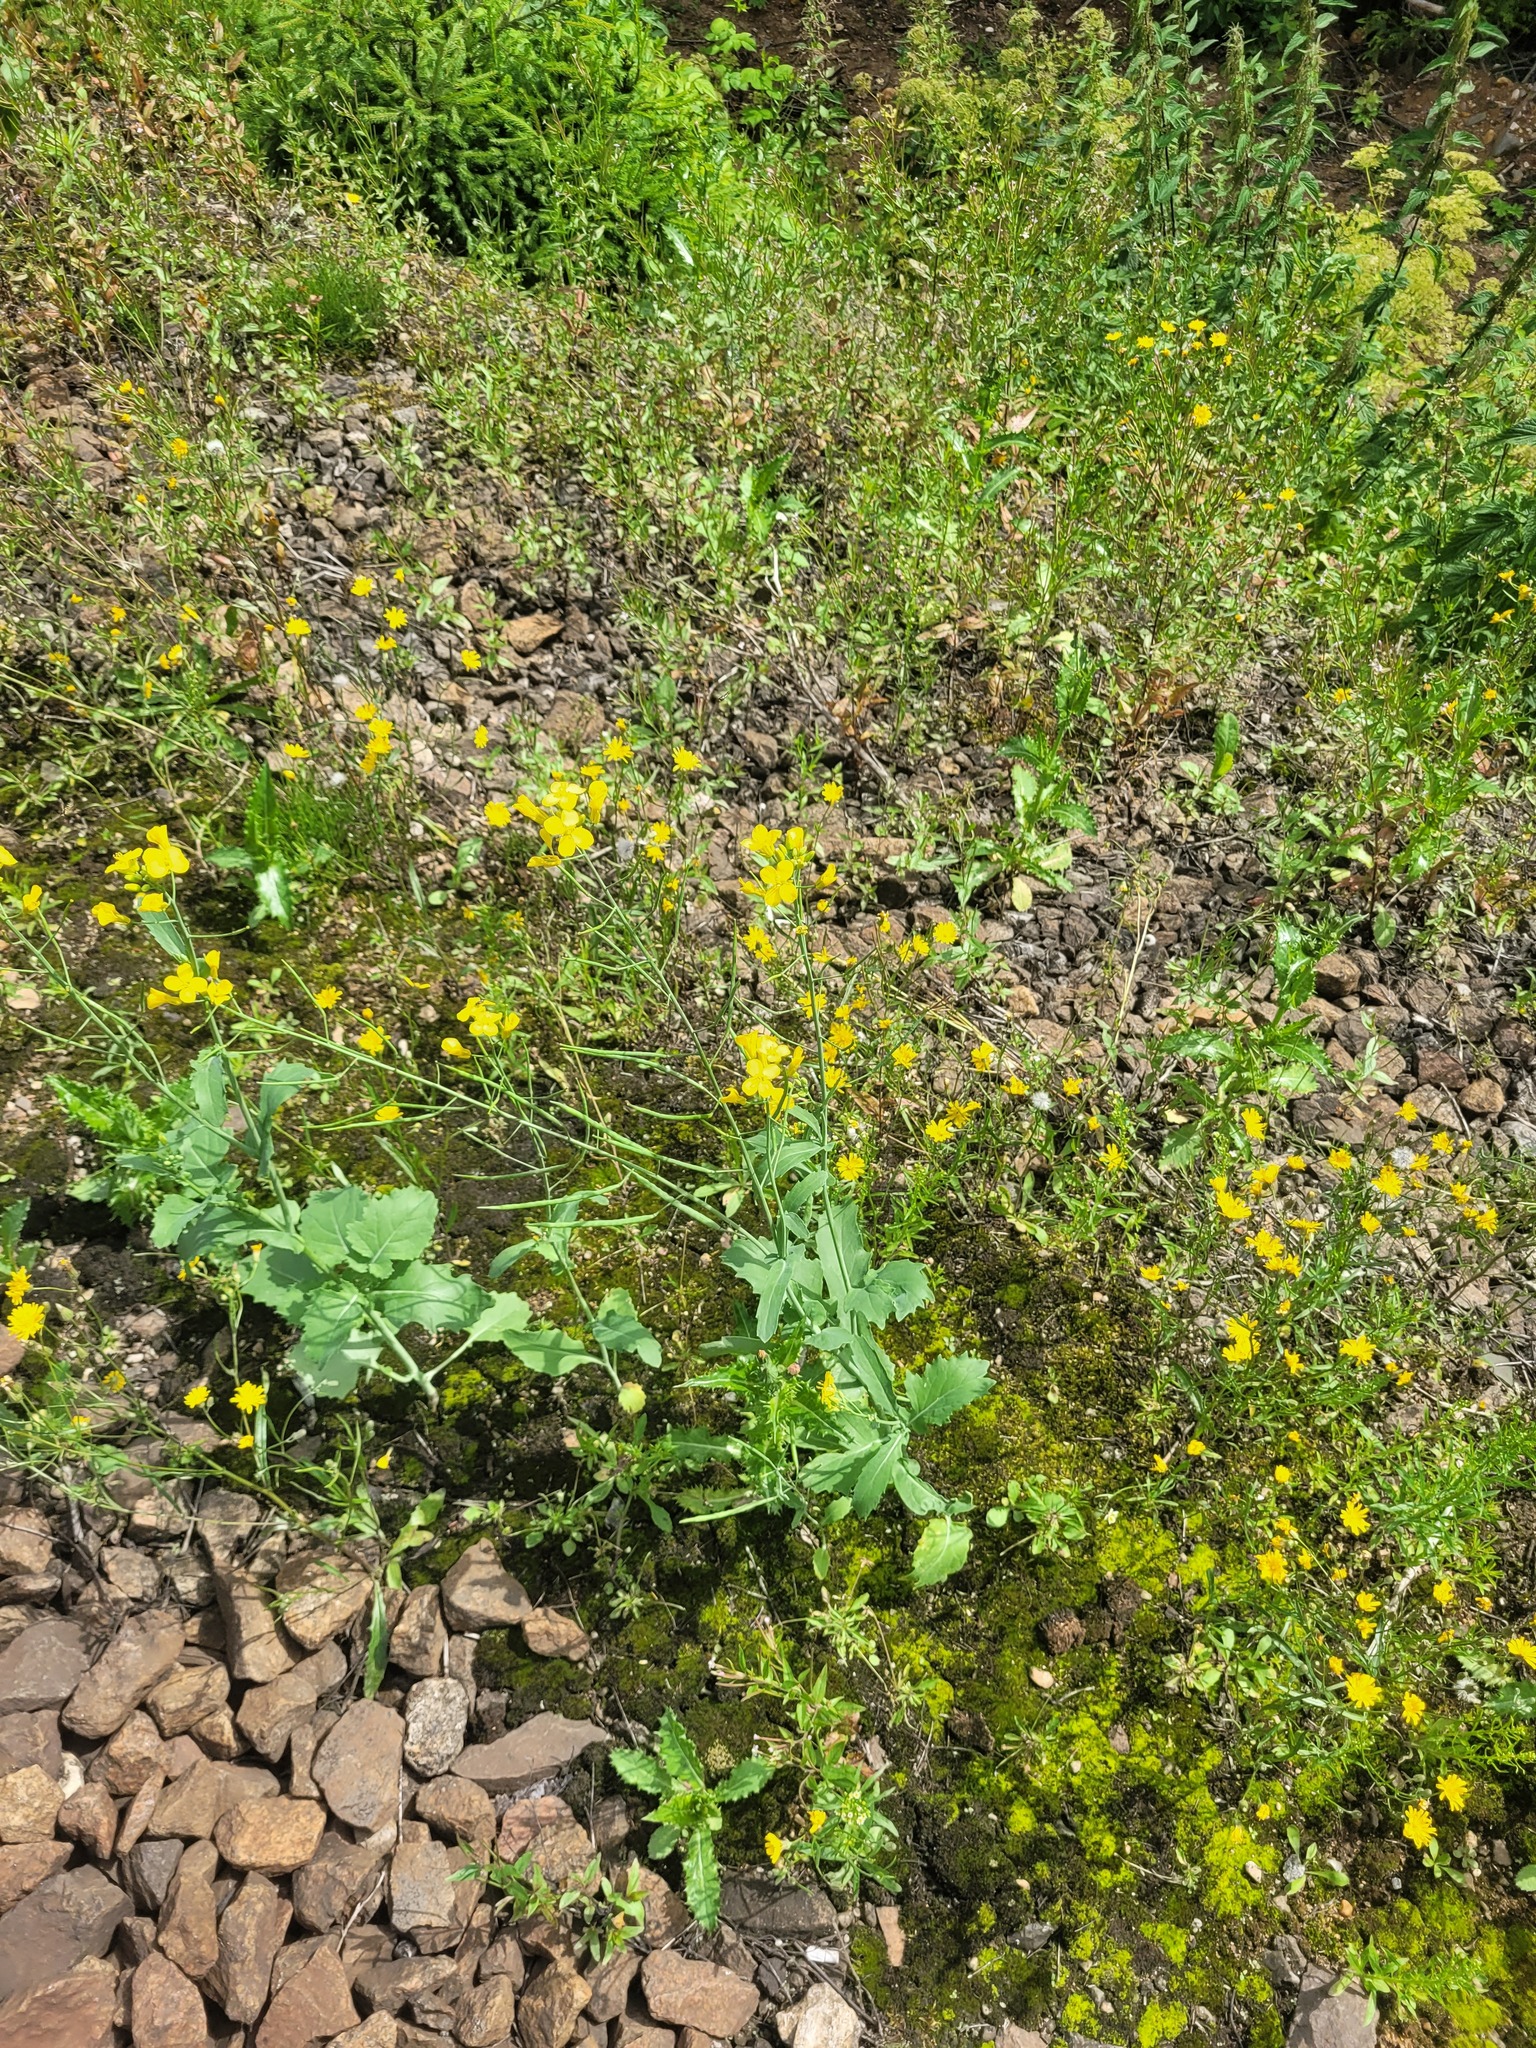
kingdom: Plantae
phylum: Tracheophyta
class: Magnoliopsida
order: Brassicales
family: Brassicaceae
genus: Brassica
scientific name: Brassica napus
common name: Rape
